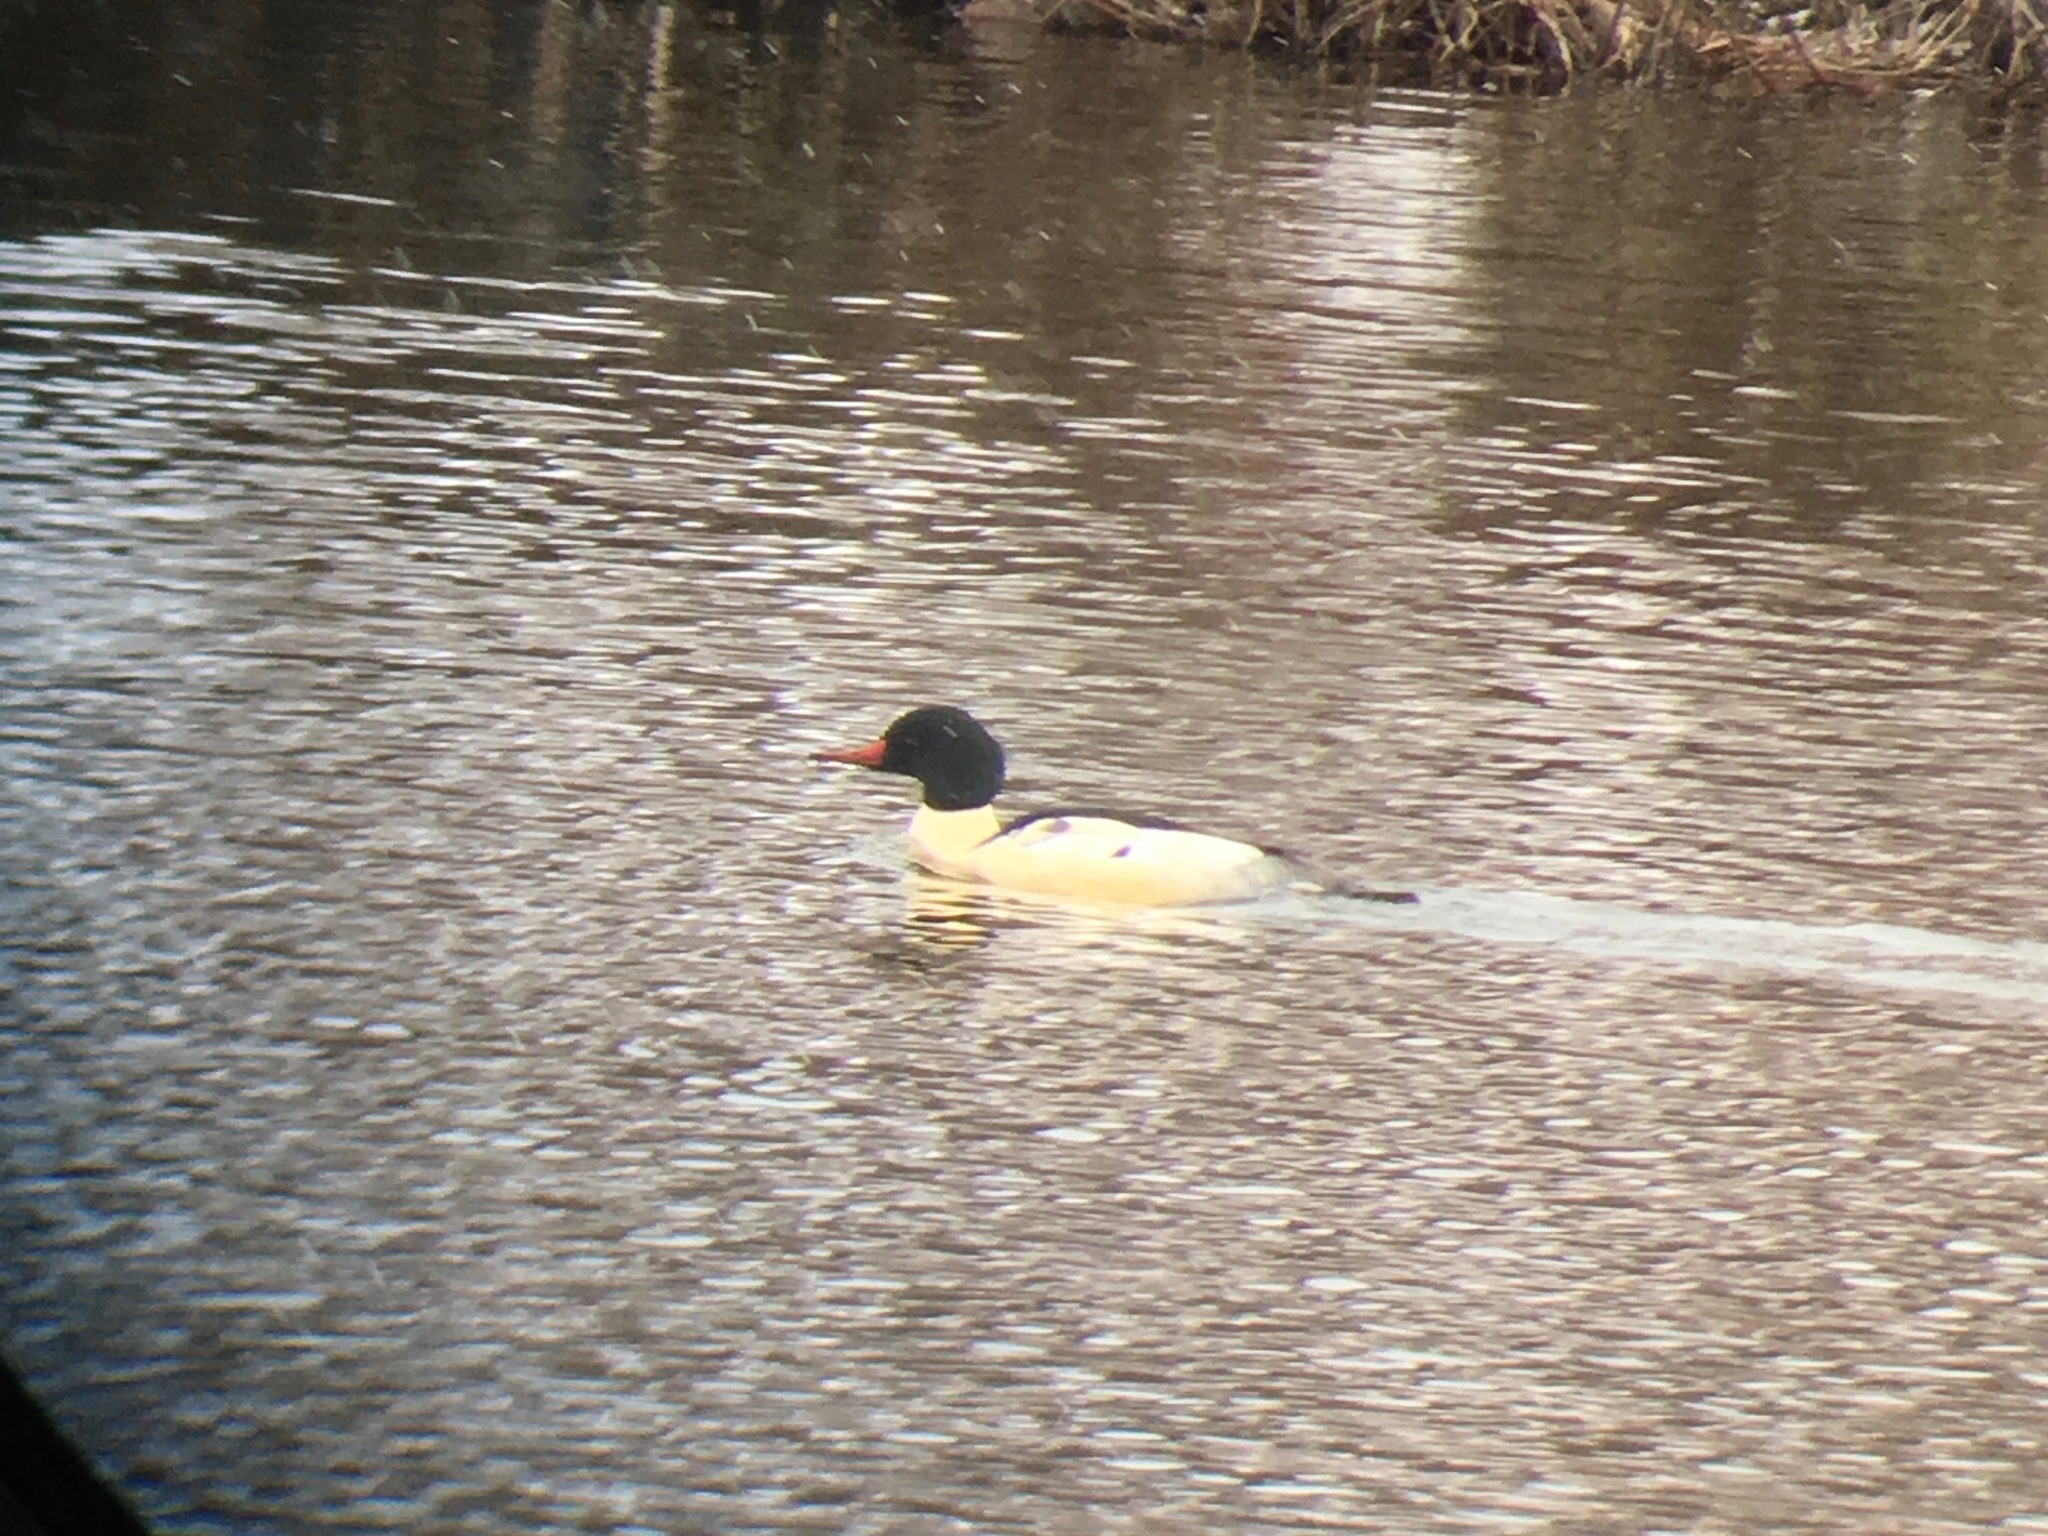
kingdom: Animalia
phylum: Chordata
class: Aves
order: Anseriformes
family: Anatidae
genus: Mergus
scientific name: Mergus merganser
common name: Common merganser
